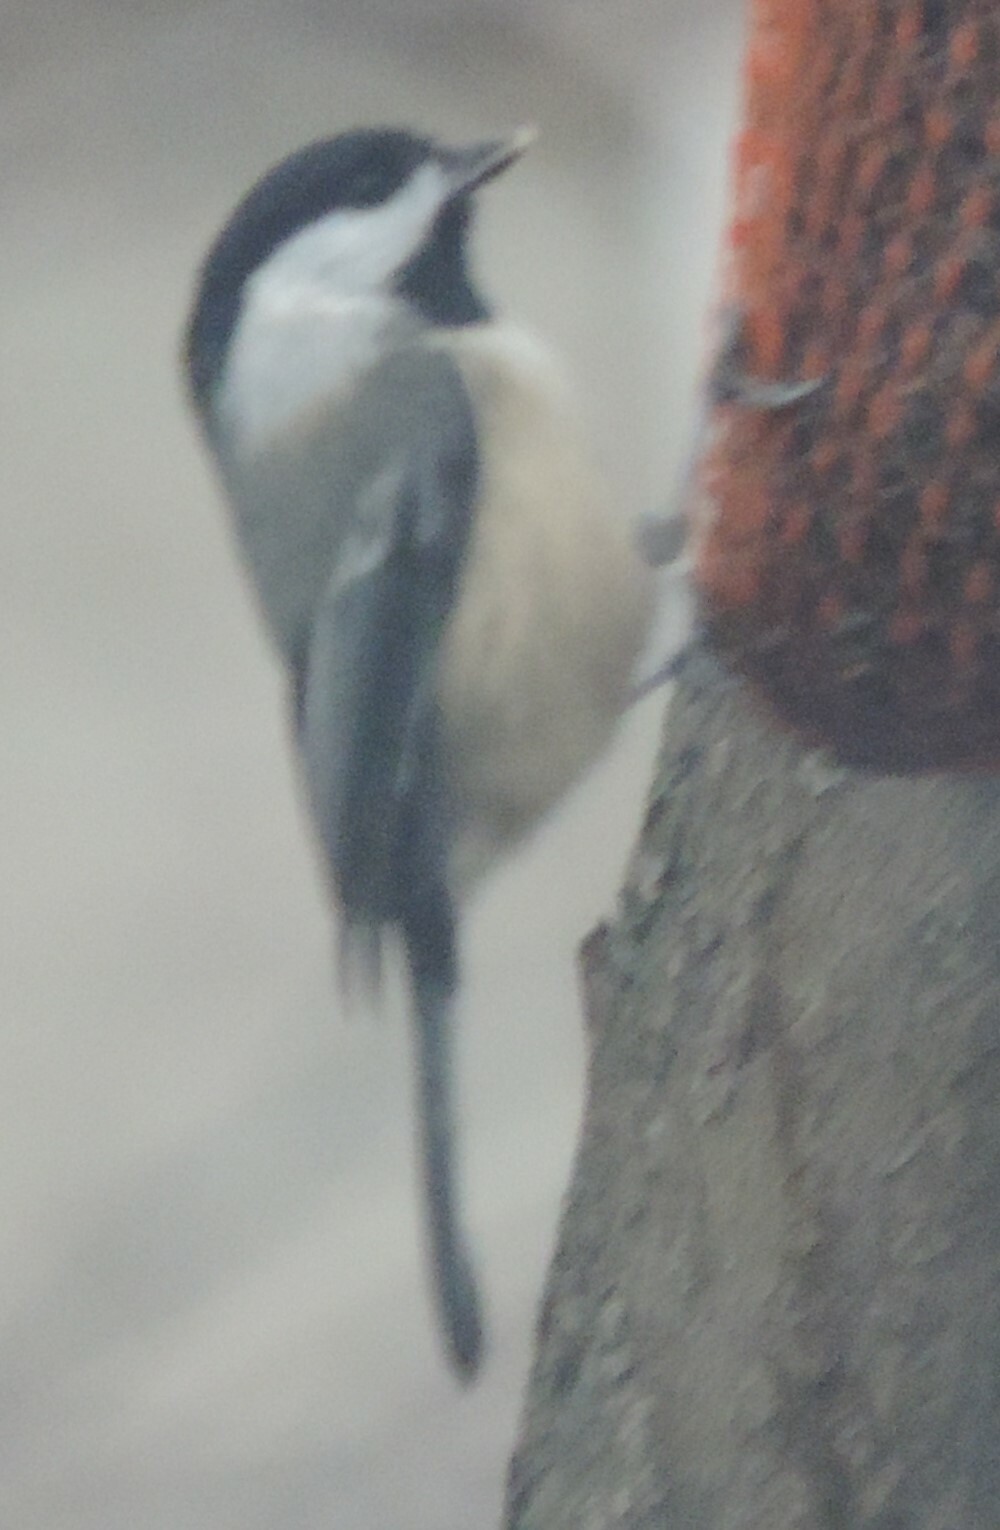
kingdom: Animalia
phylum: Chordata
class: Aves
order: Passeriformes
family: Paridae
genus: Poecile
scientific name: Poecile atricapillus
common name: Black-capped chickadee
